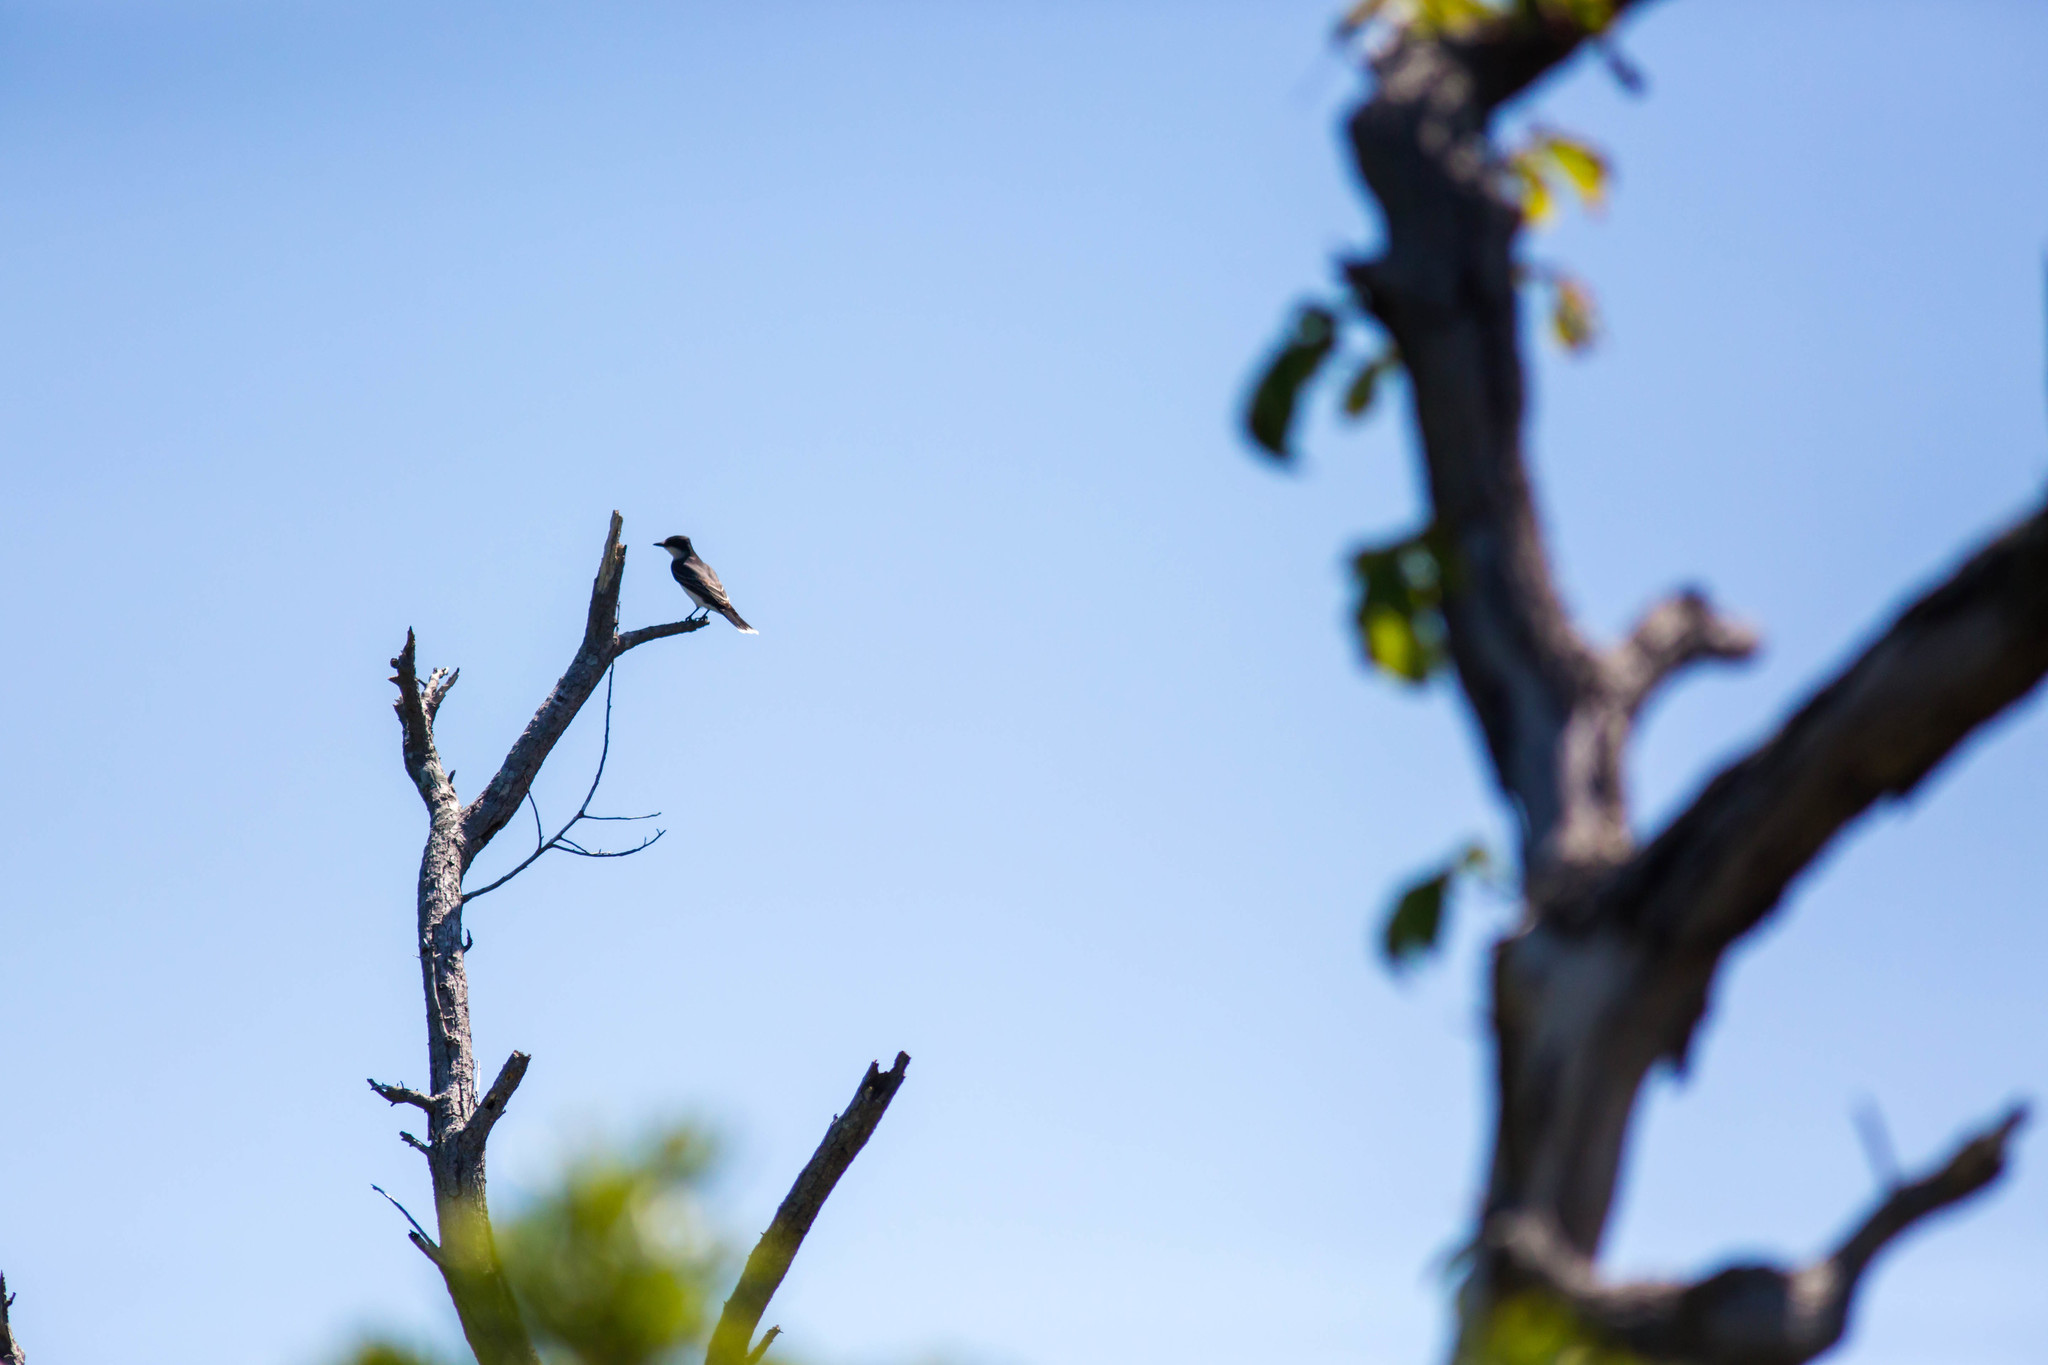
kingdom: Animalia
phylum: Chordata
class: Aves
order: Passeriformes
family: Tyrannidae
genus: Tyrannus
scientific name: Tyrannus tyrannus
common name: Eastern kingbird
